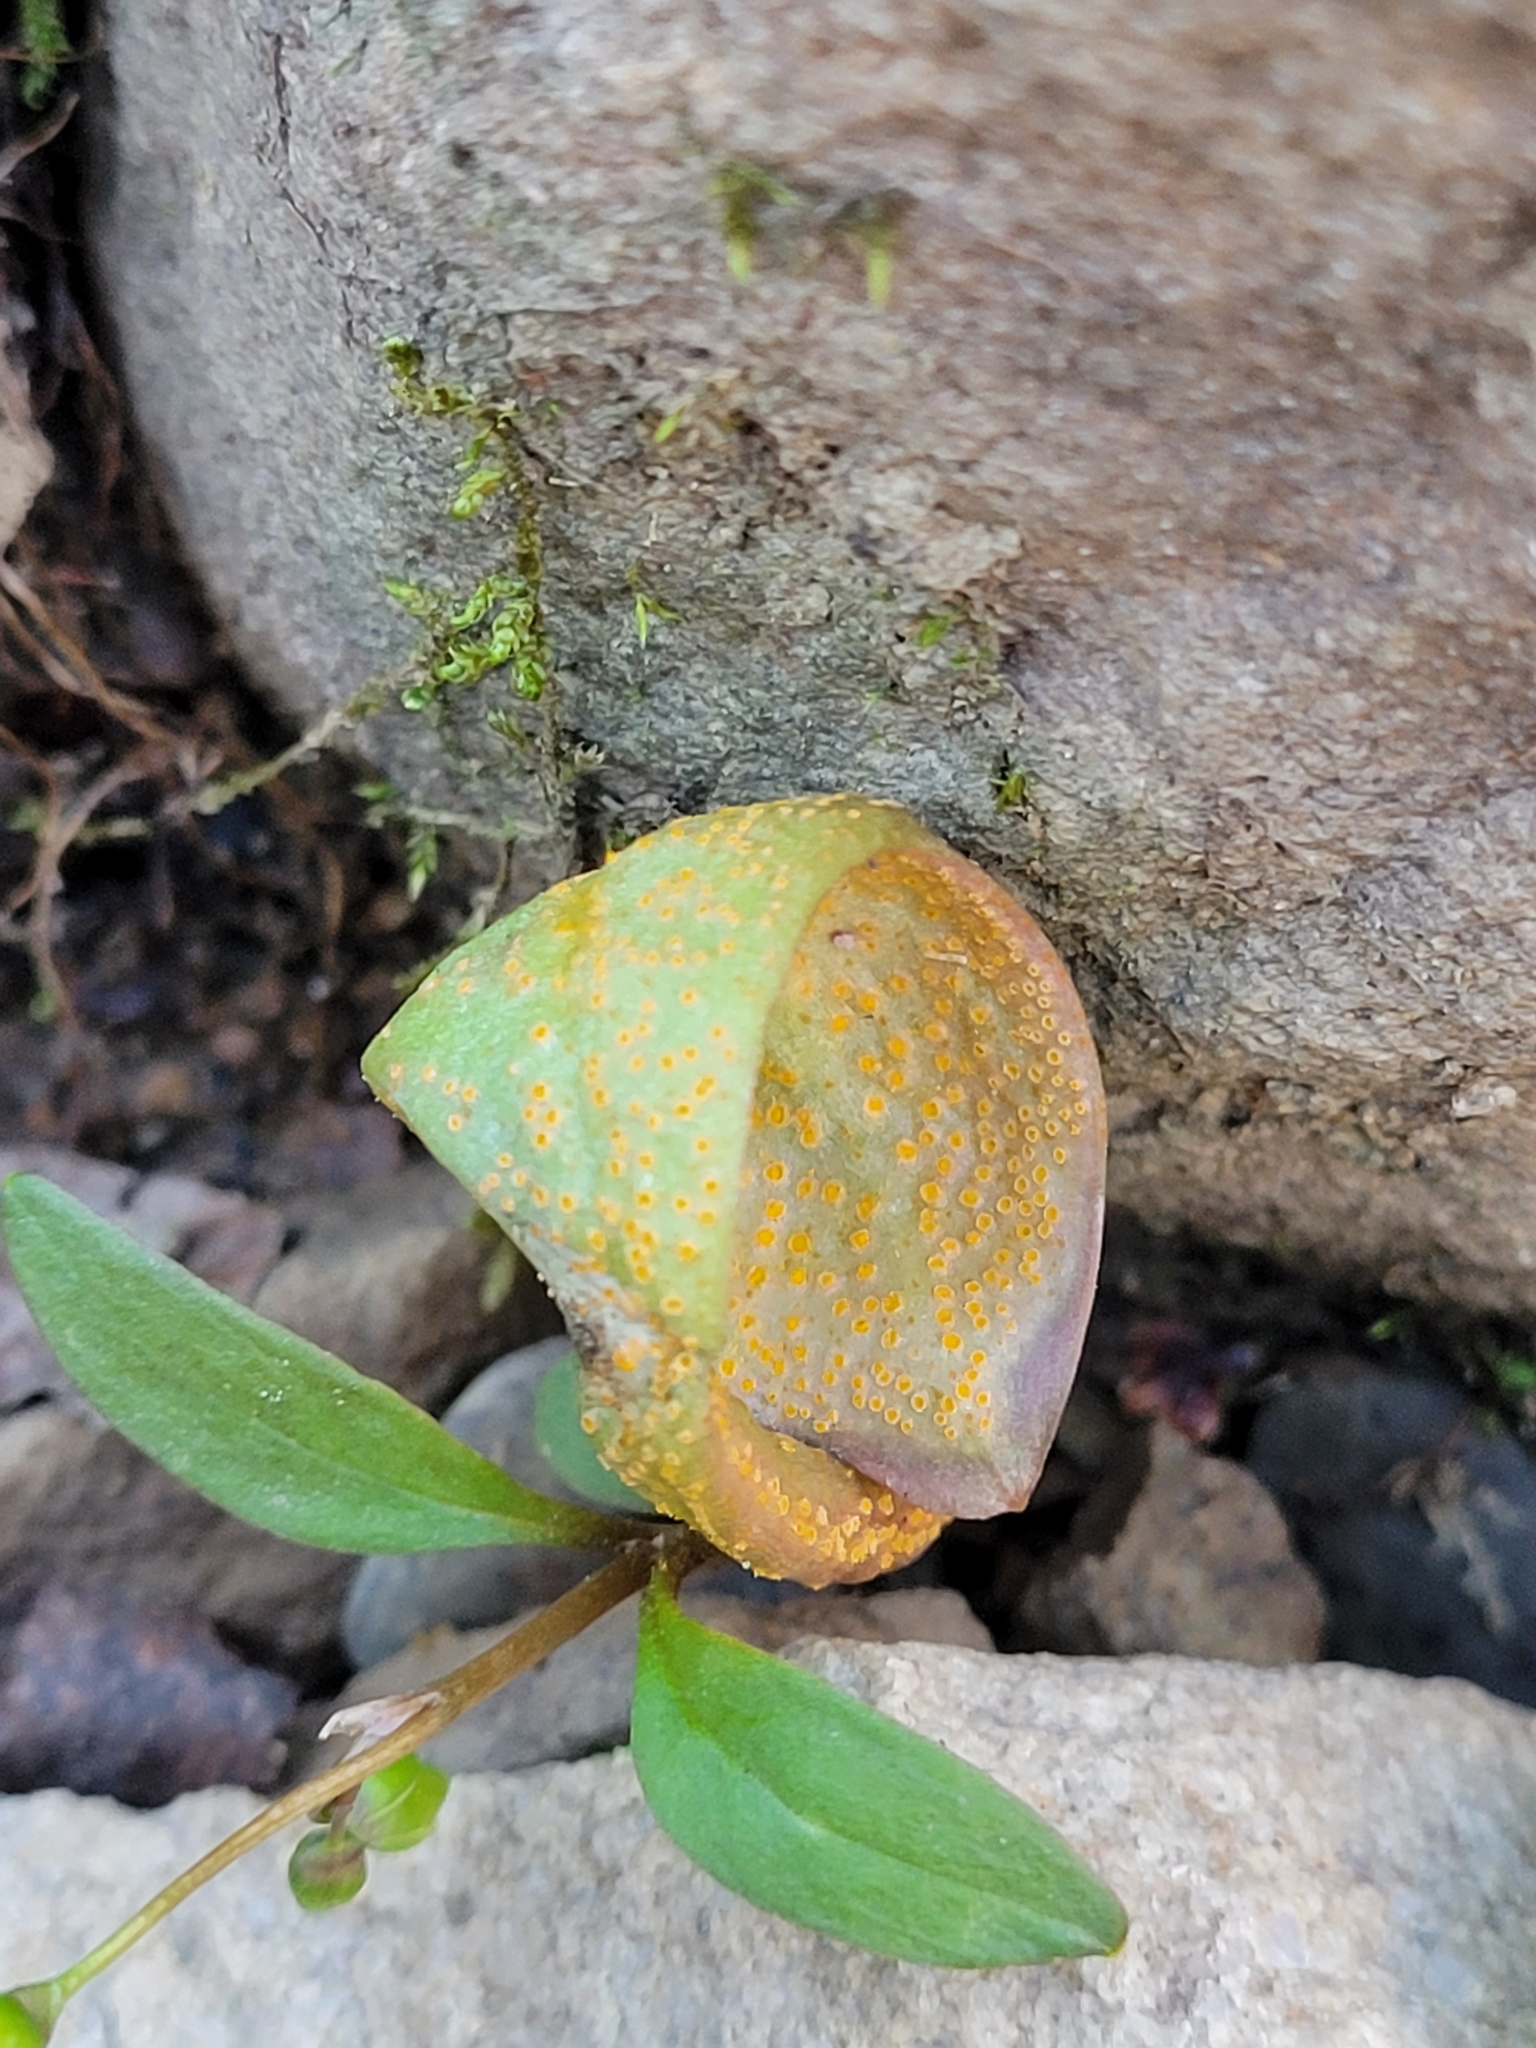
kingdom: Fungi
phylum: Basidiomycota
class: Pucciniomycetes
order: Pucciniales
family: Pucciniaceae
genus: Puccinia
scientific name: Puccinia mariae-wilsoniae
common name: Spring beauty rust
